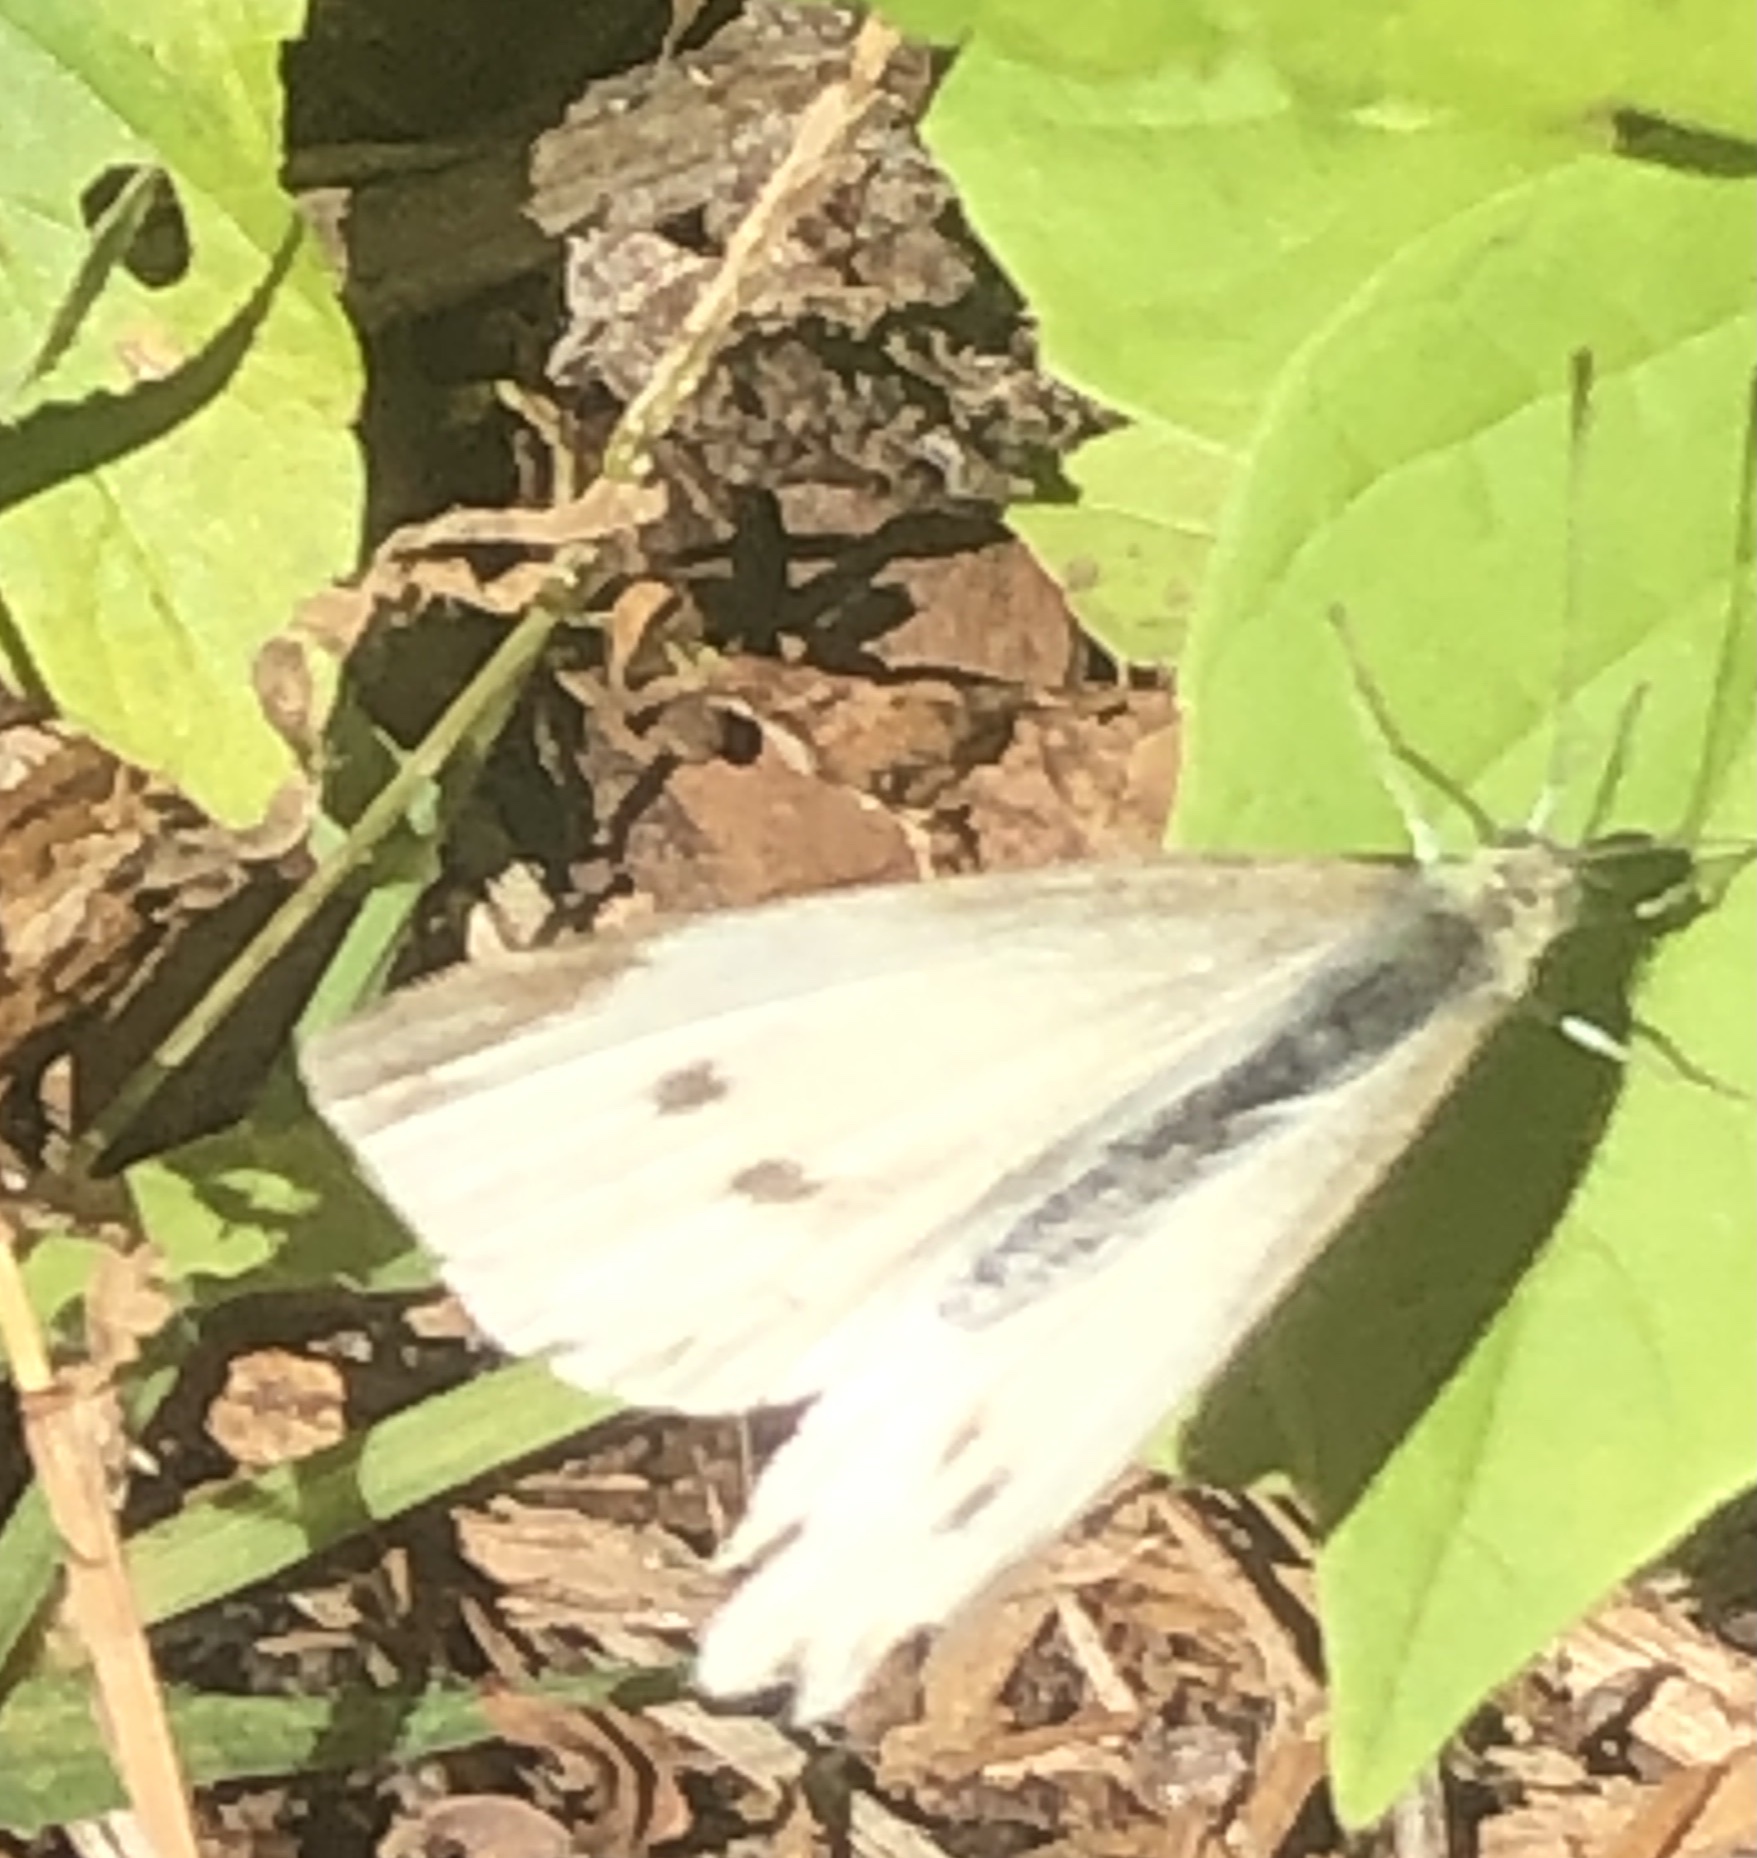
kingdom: Animalia
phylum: Arthropoda
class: Insecta
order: Lepidoptera
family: Pieridae
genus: Pieris
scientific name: Pieris rapae
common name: Small white
